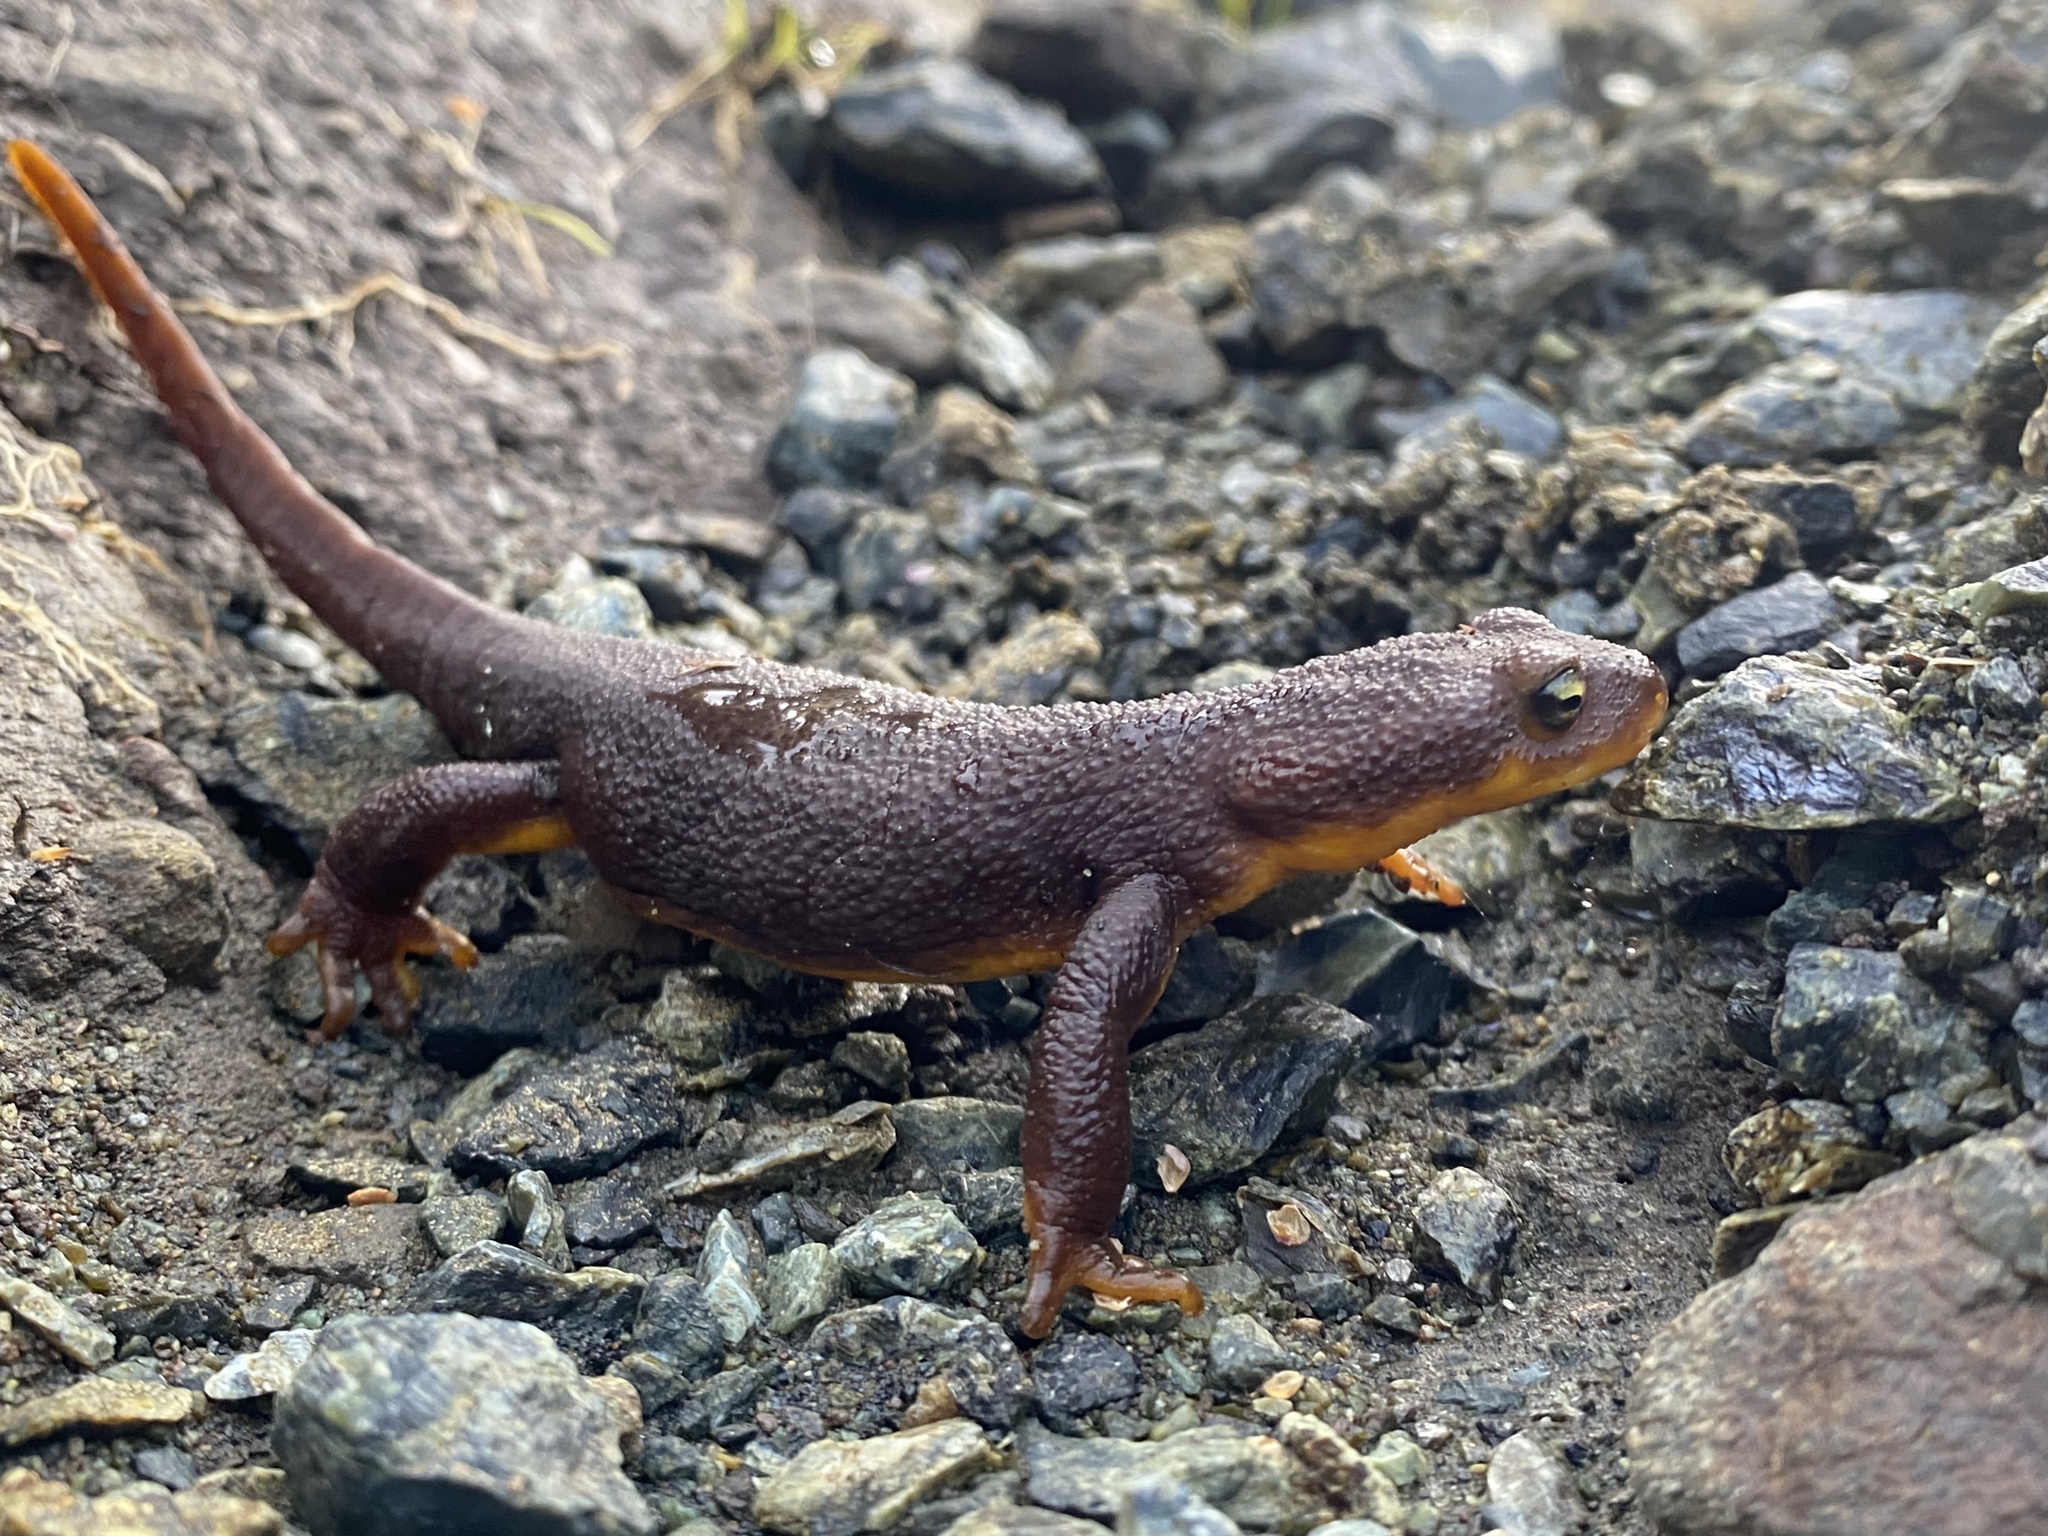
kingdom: Animalia
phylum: Chordata
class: Amphibia
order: Caudata
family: Salamandridae
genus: Taricha
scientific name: Taricha granulosa
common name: Roughskin newt
